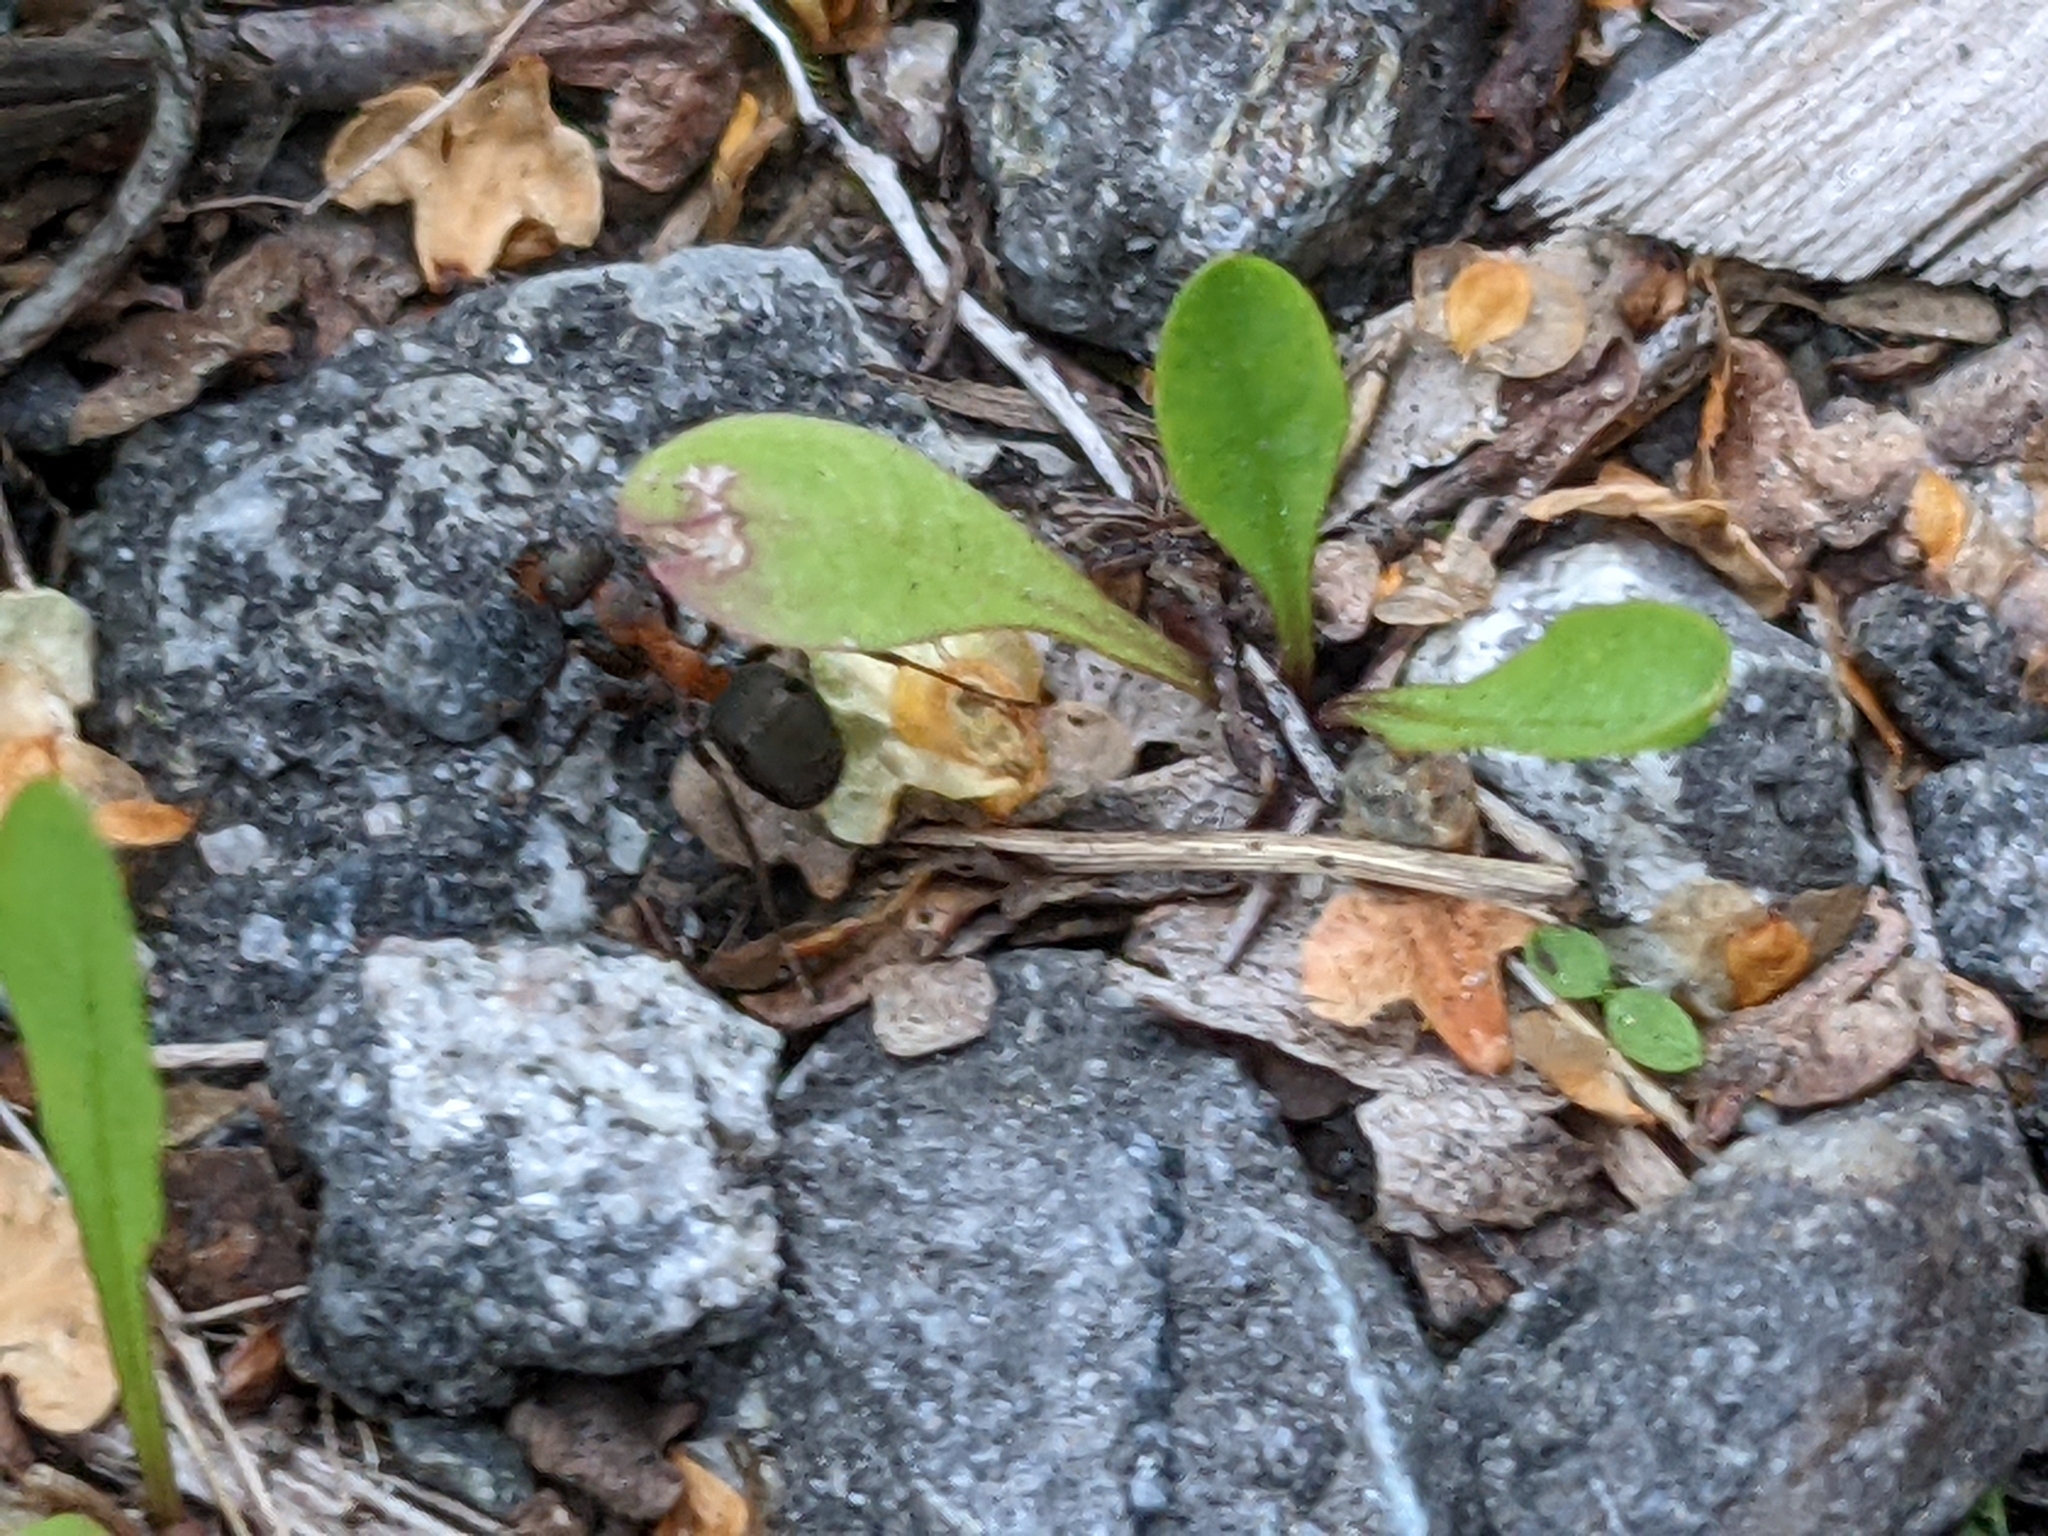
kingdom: Animalia
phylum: Arthropoda
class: Insecta
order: Hymenoptera
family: Formicidae
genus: Formica
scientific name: Formica rufa
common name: Red wood ant
